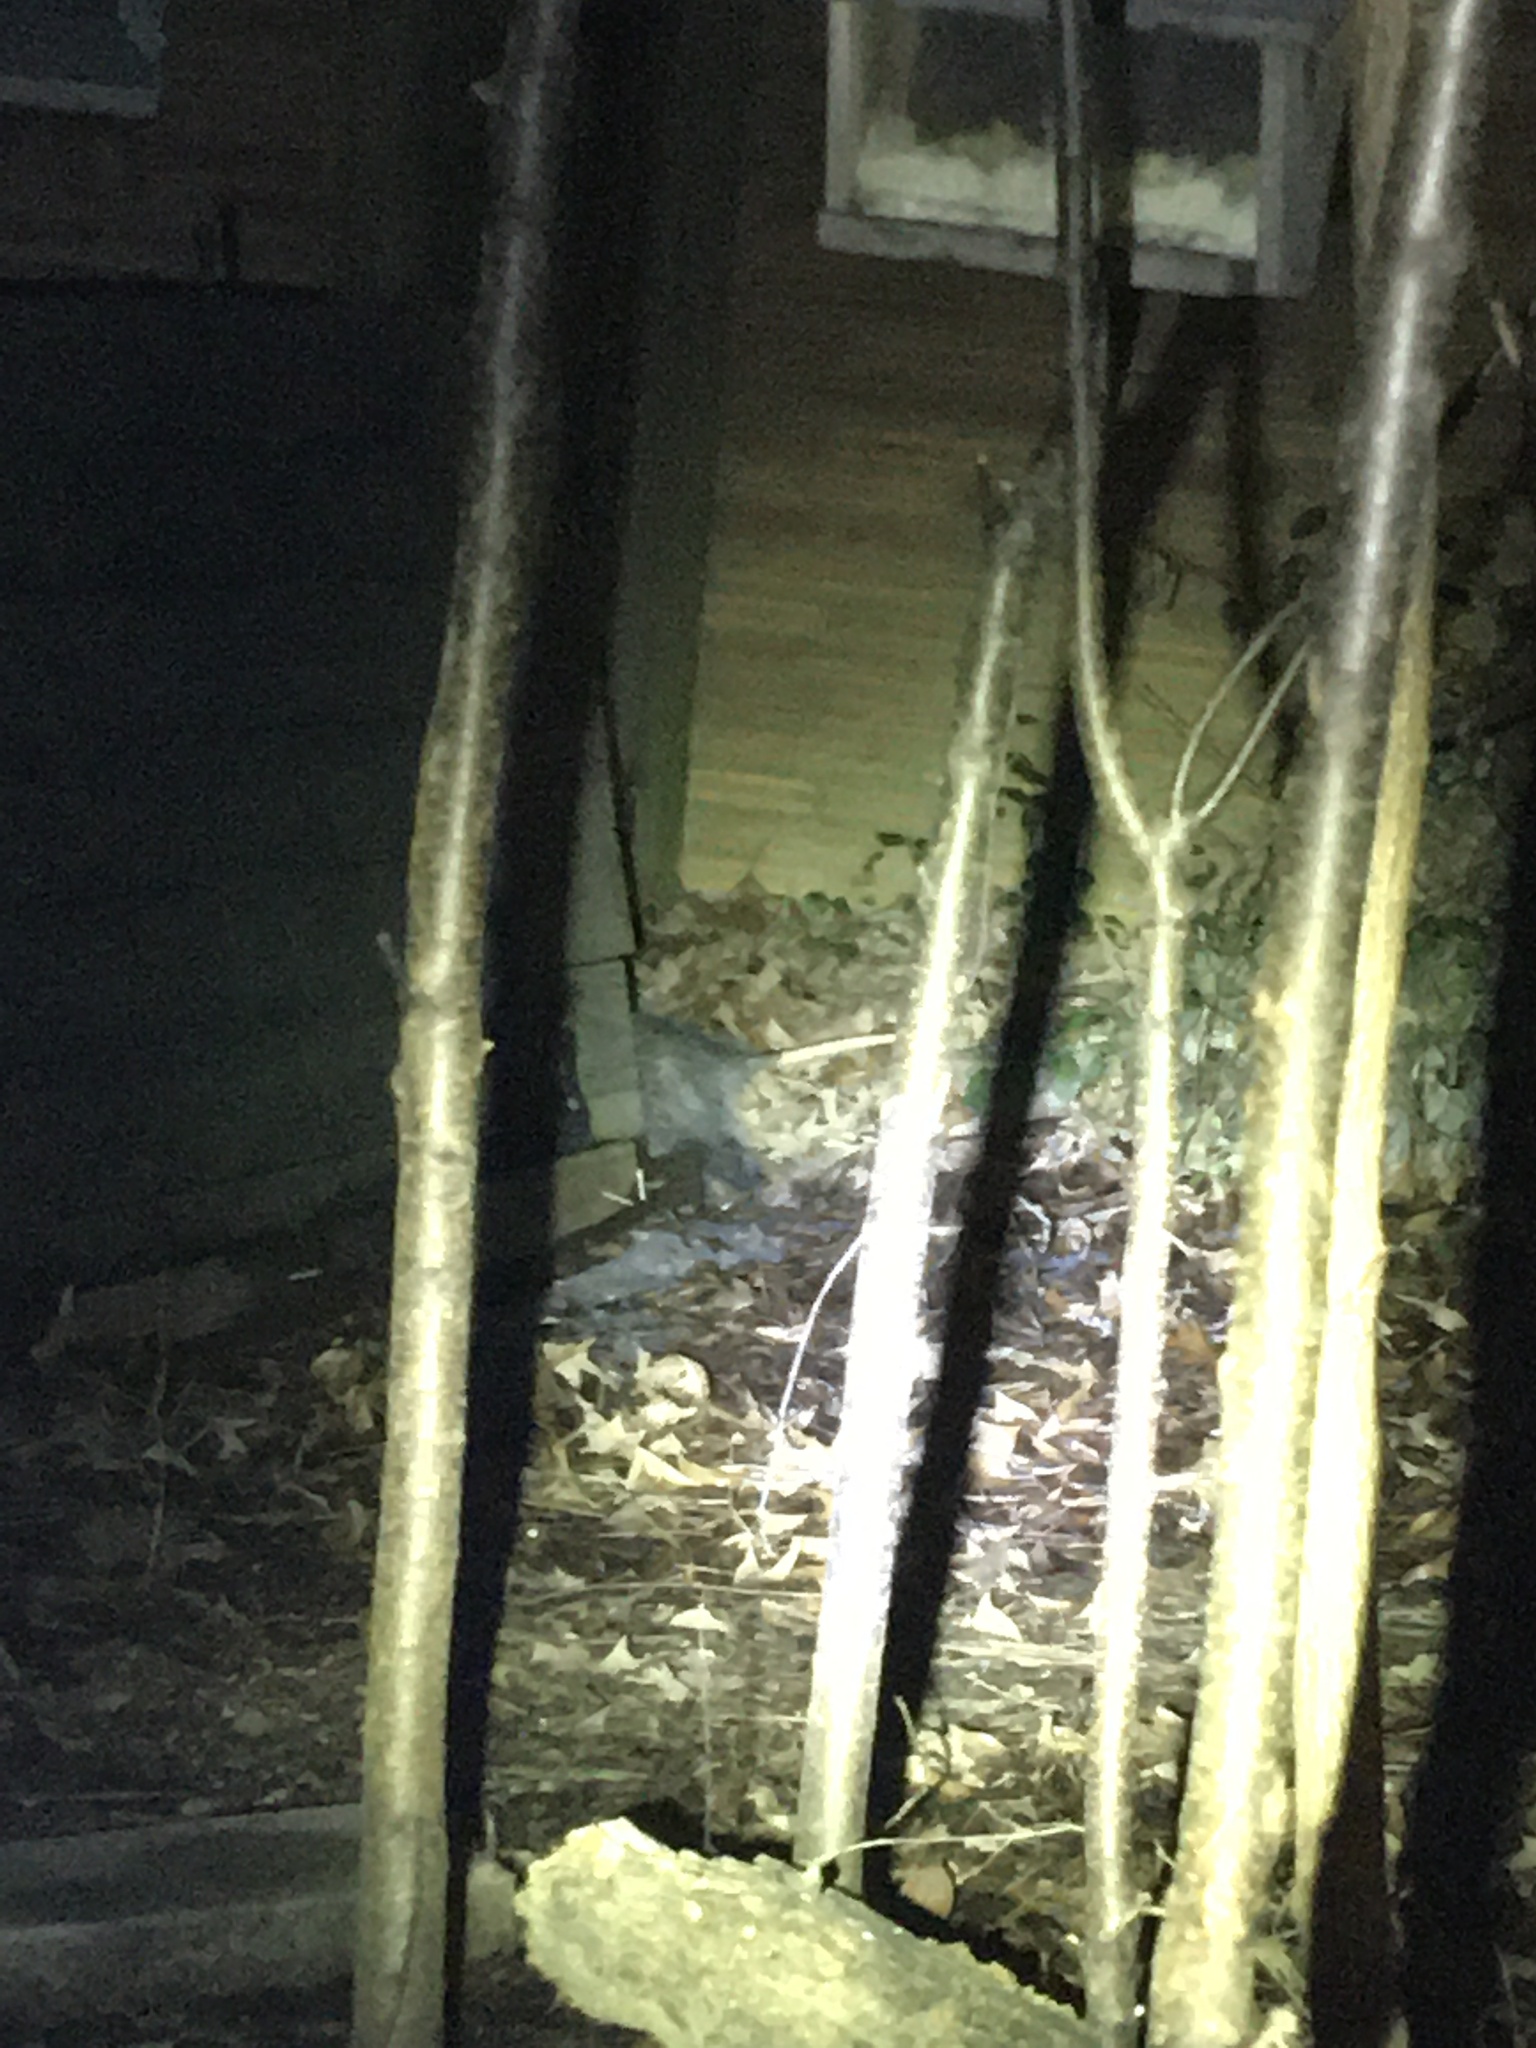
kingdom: Animalia
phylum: Chordata
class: Mammalia
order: Didelphimorphia
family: Didelphidae
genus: Didelphis
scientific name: Didelphis virginiana
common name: Virginia opossum
